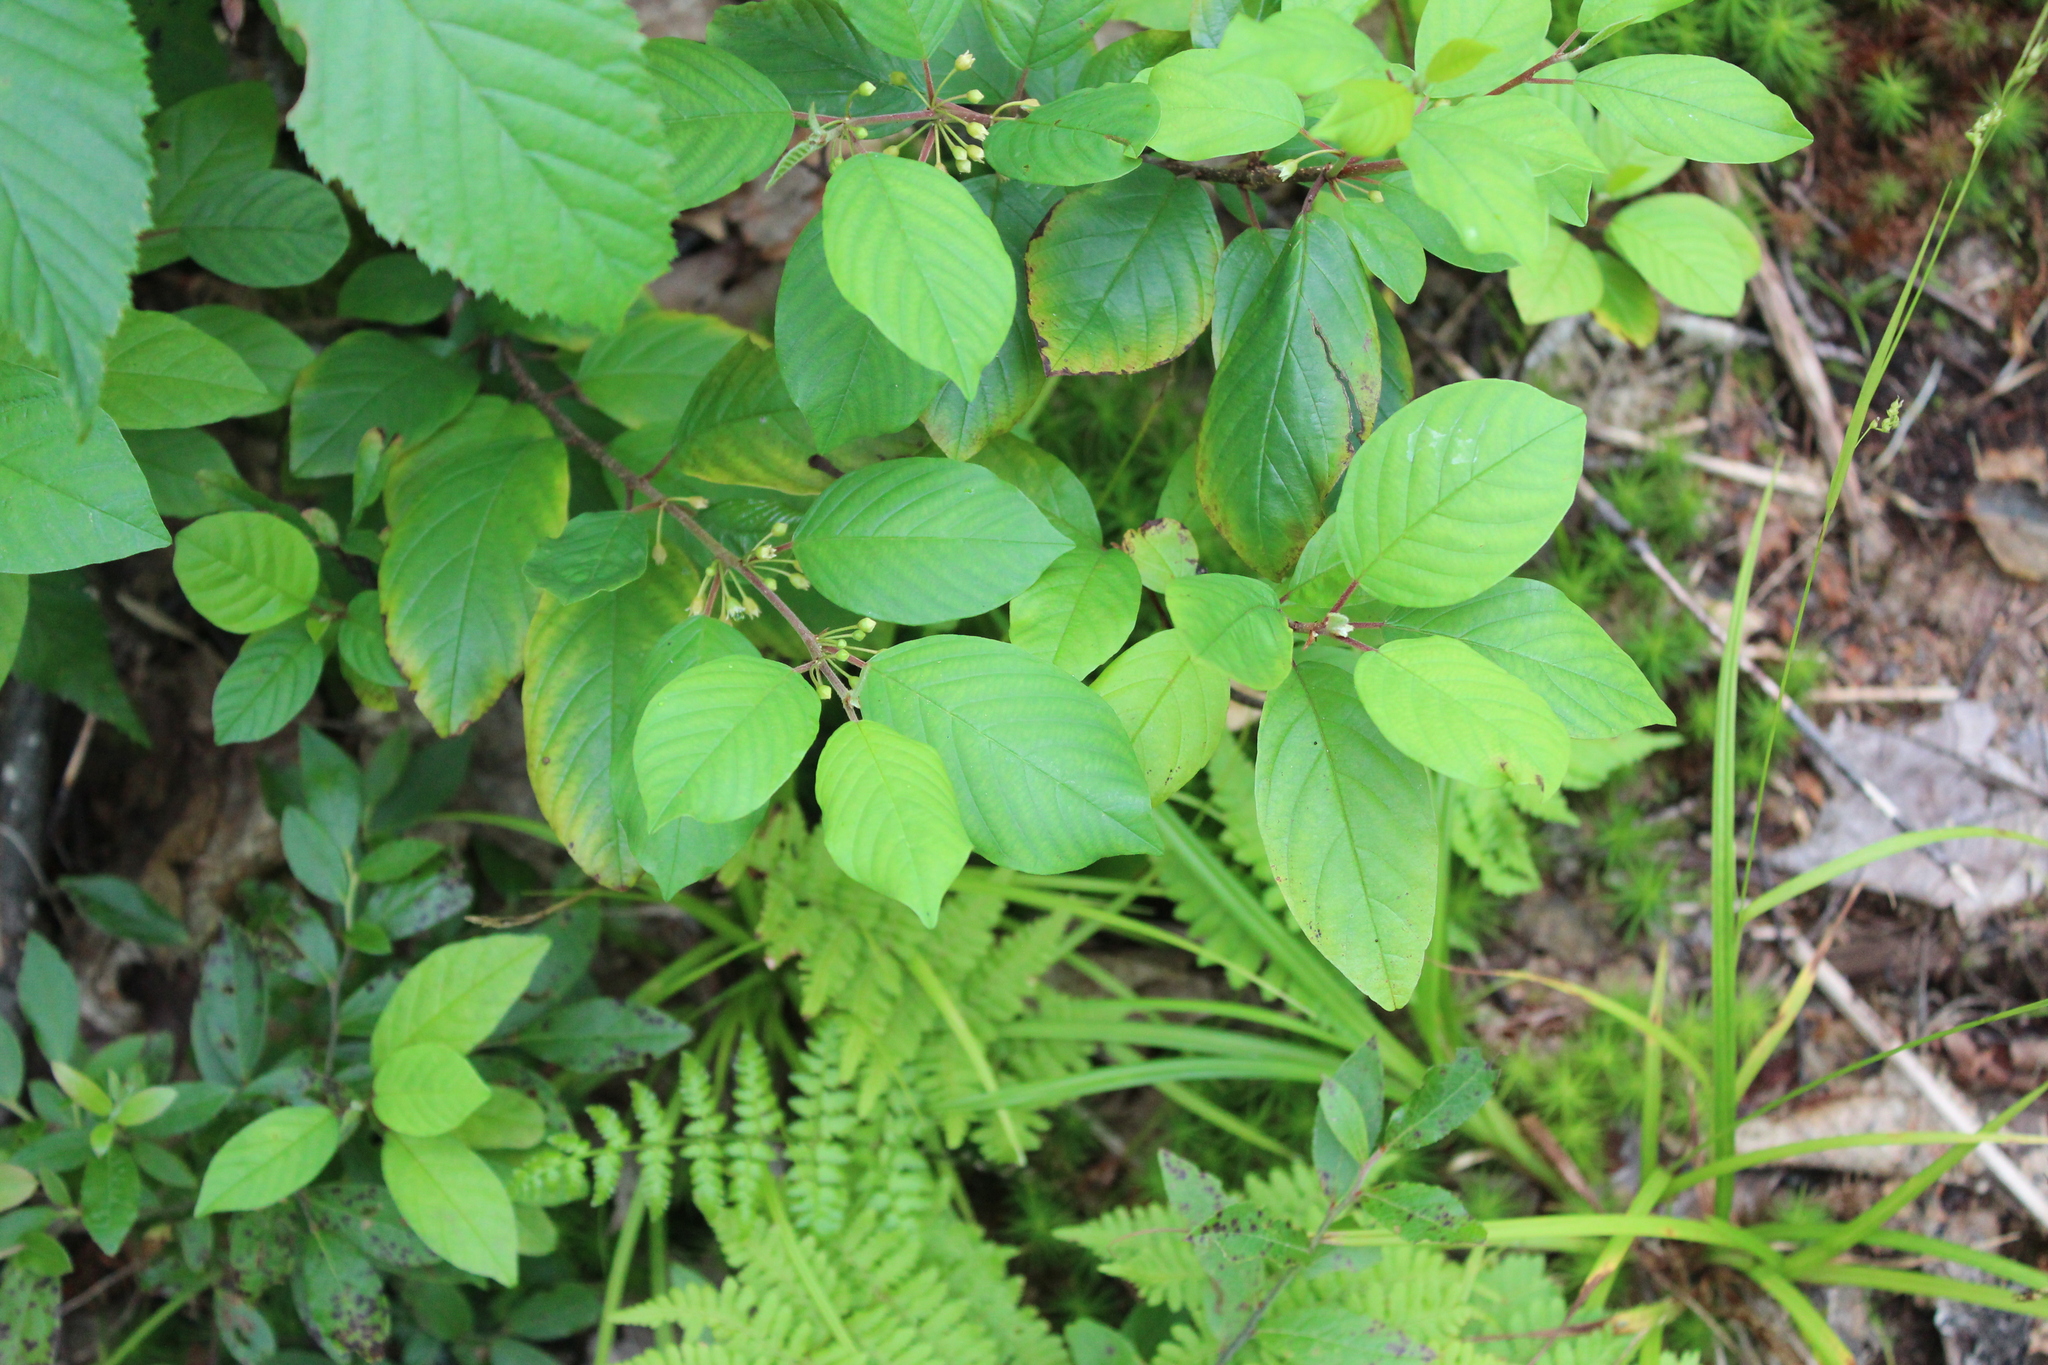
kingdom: Plantae
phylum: Tracheophyta
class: Magnoliopsida
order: Rosales
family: Rhamnaceae
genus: Frangula
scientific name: Frangula alnus
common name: Alder buckthorn
